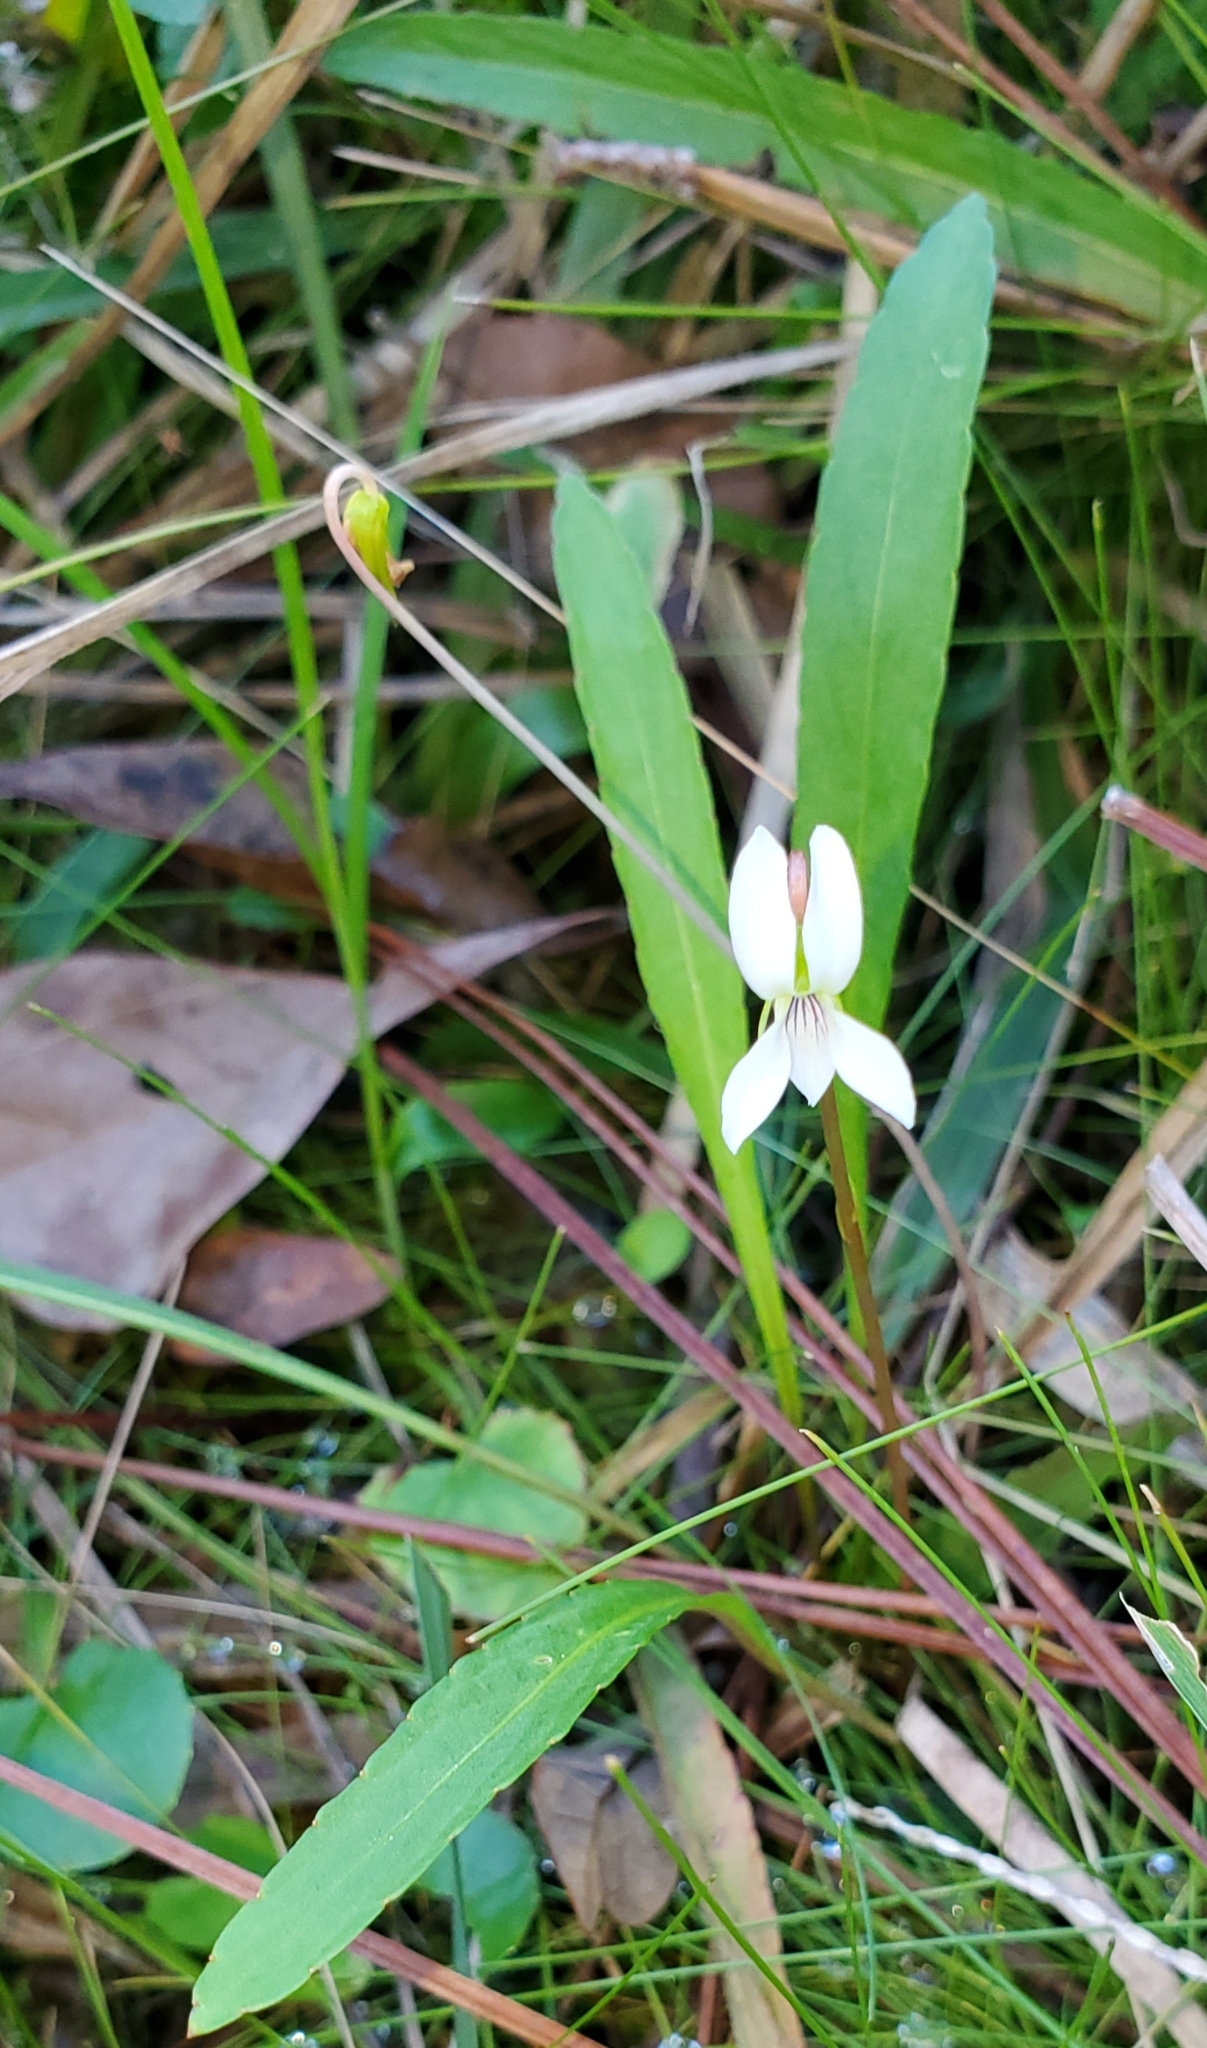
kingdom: Plantae
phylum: Tracheophyta
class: Magnoliopsida
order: Malpighiales
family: Violaceae
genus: Viola
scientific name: Viola vittata
